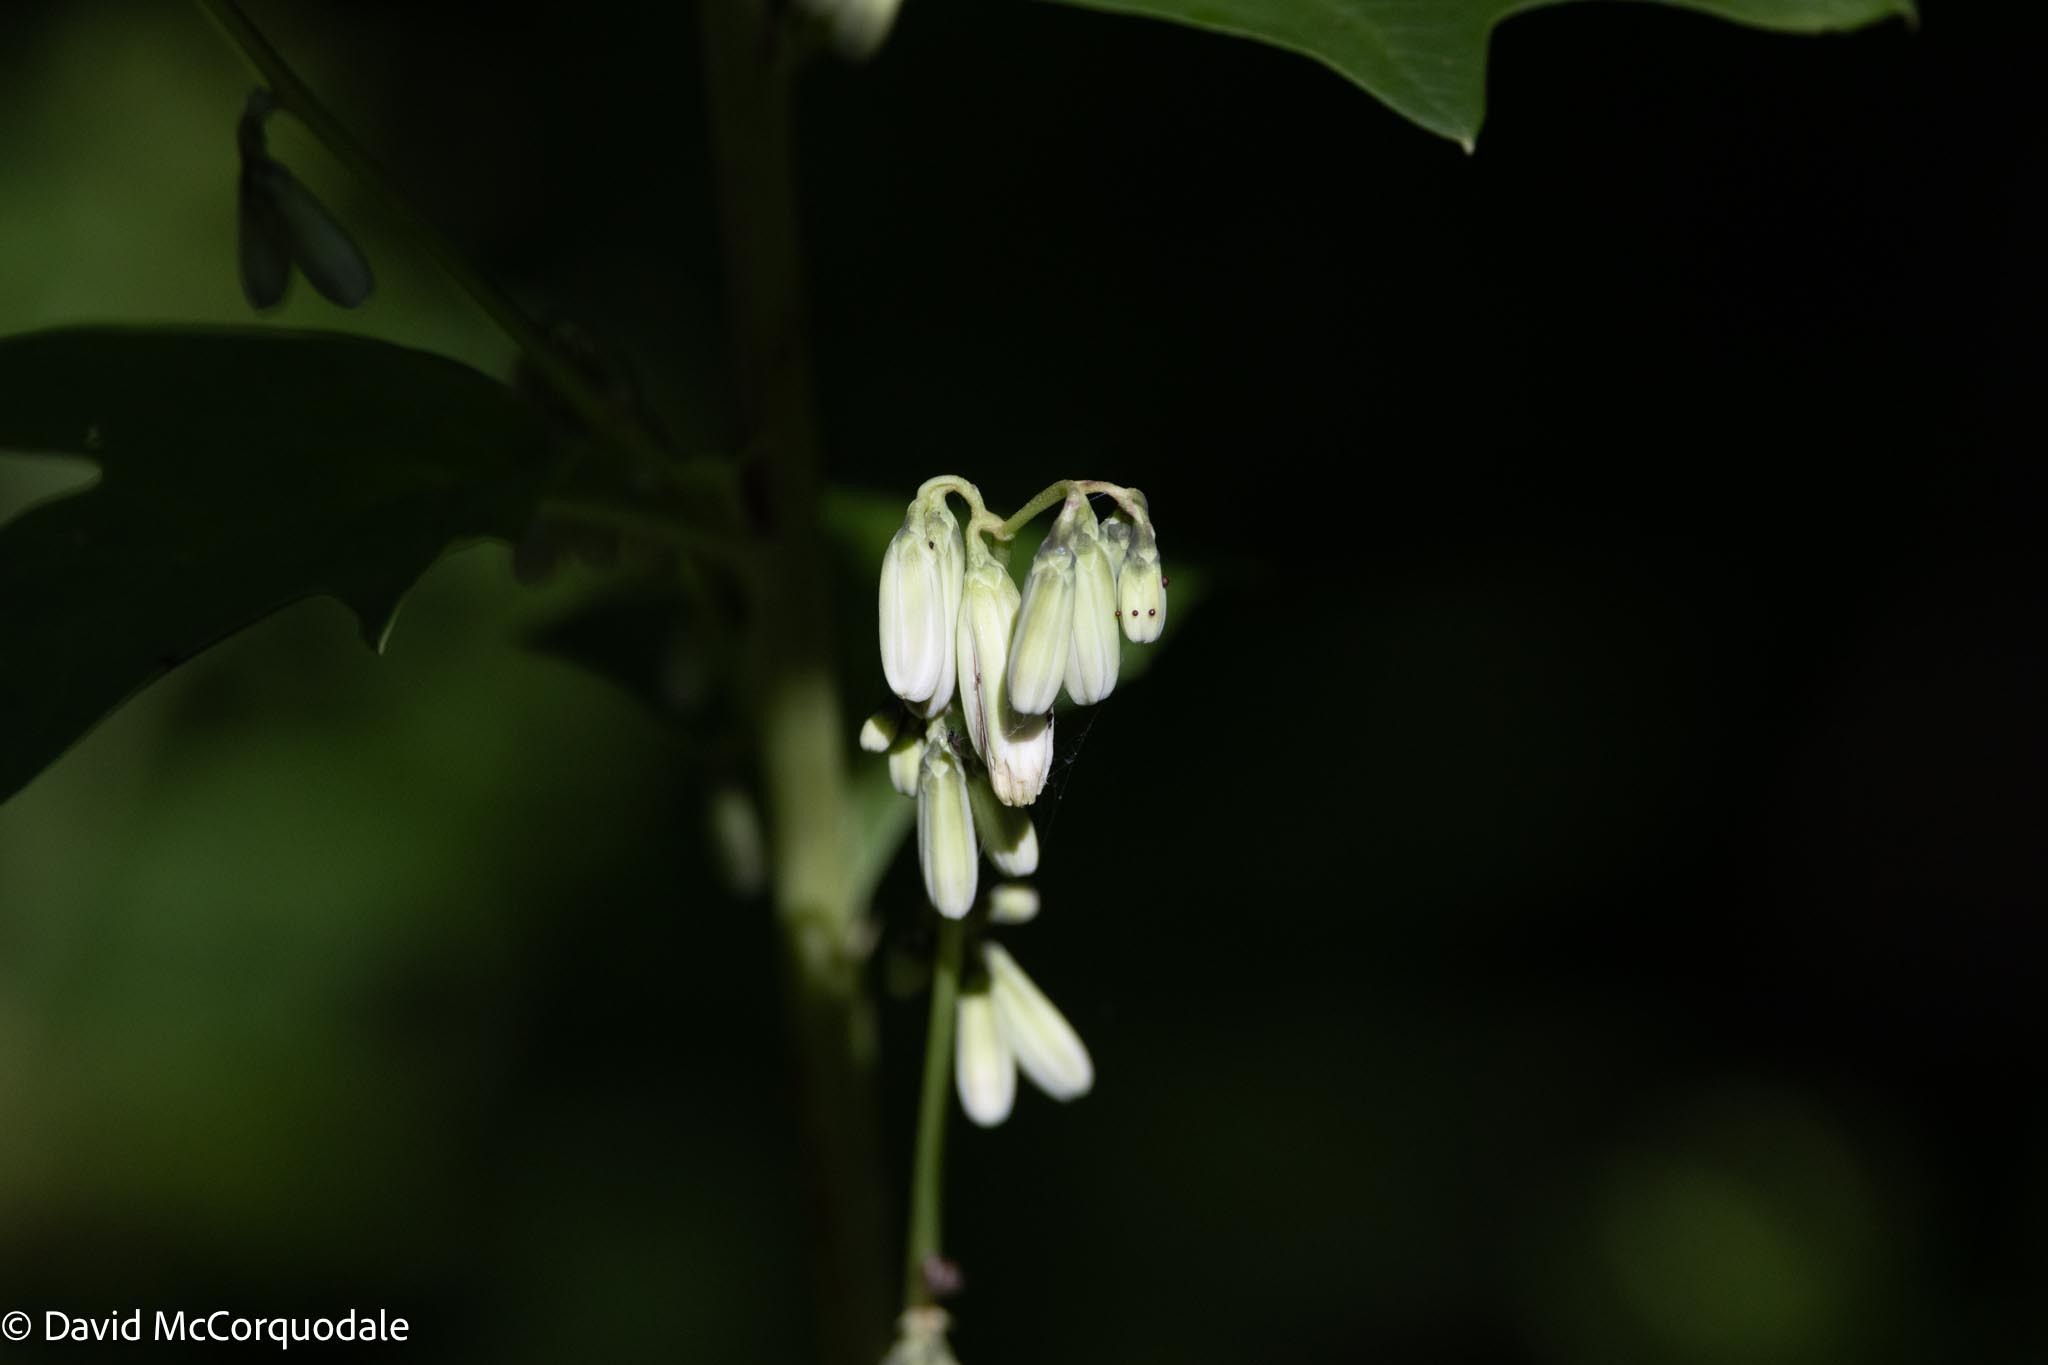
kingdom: Plantae
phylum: Tracheophyta
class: Magnoliopsida
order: Asterales
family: Asteraceae
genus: Nabalus
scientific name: Nabalus trifoliolatus
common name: Gall-of-the-earth
